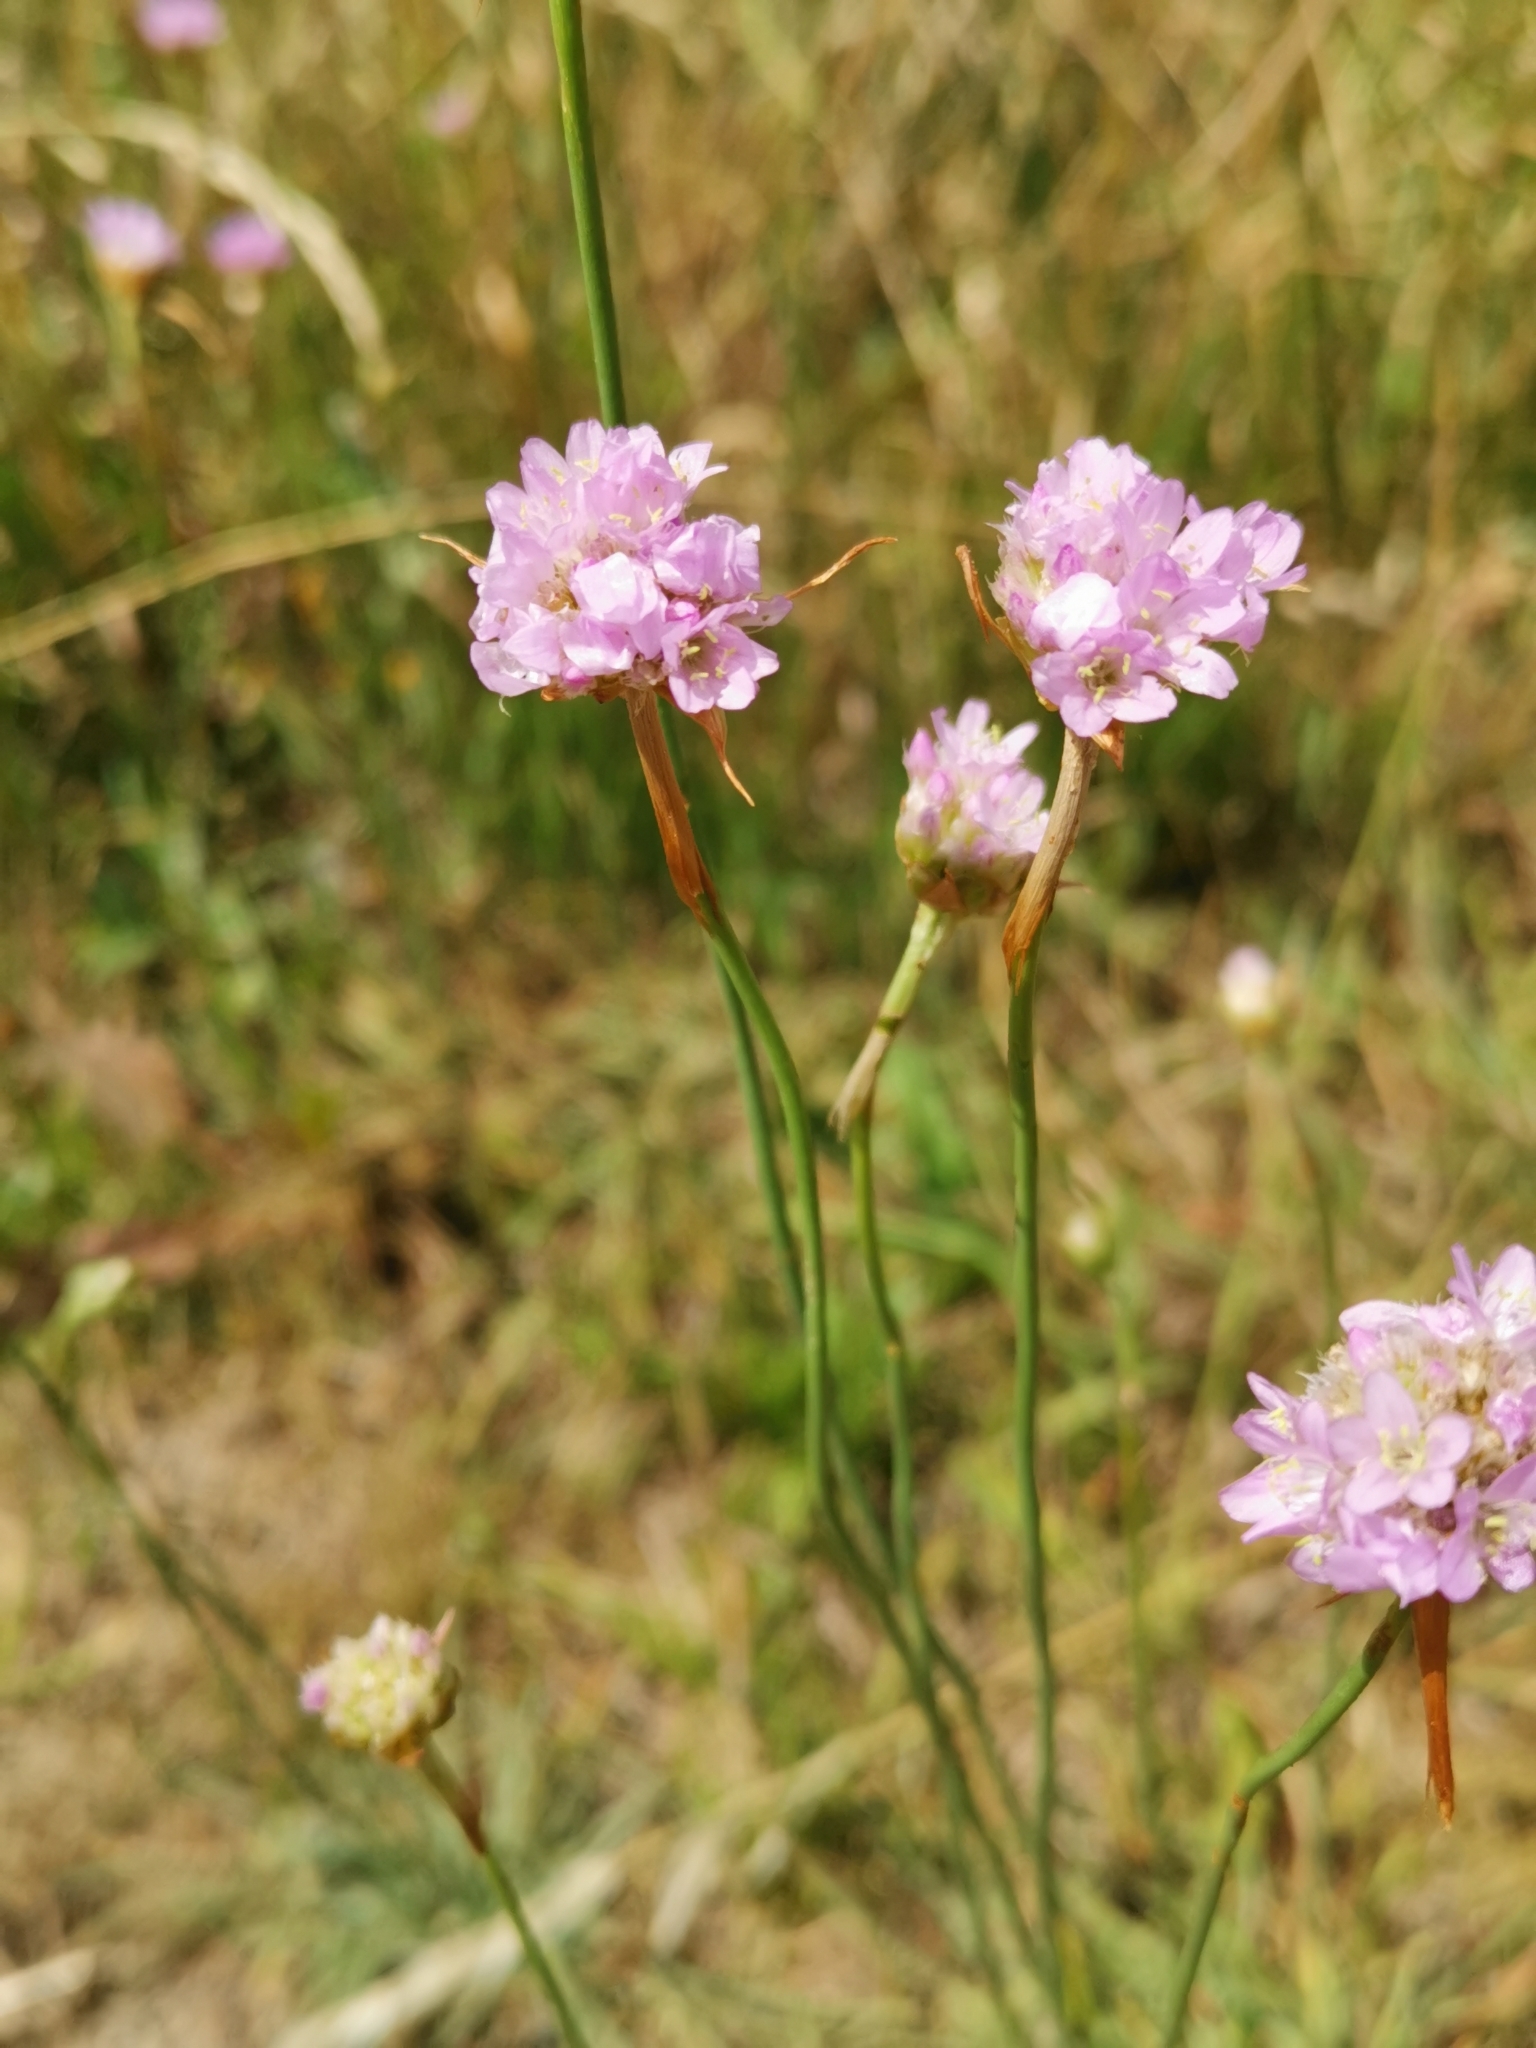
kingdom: Plantae
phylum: Tracheophyta
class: Magnoliopsida
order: Caryophyllales
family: Plumbaginaceae
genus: Armeria
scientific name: Armeria maritima
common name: Thrift
